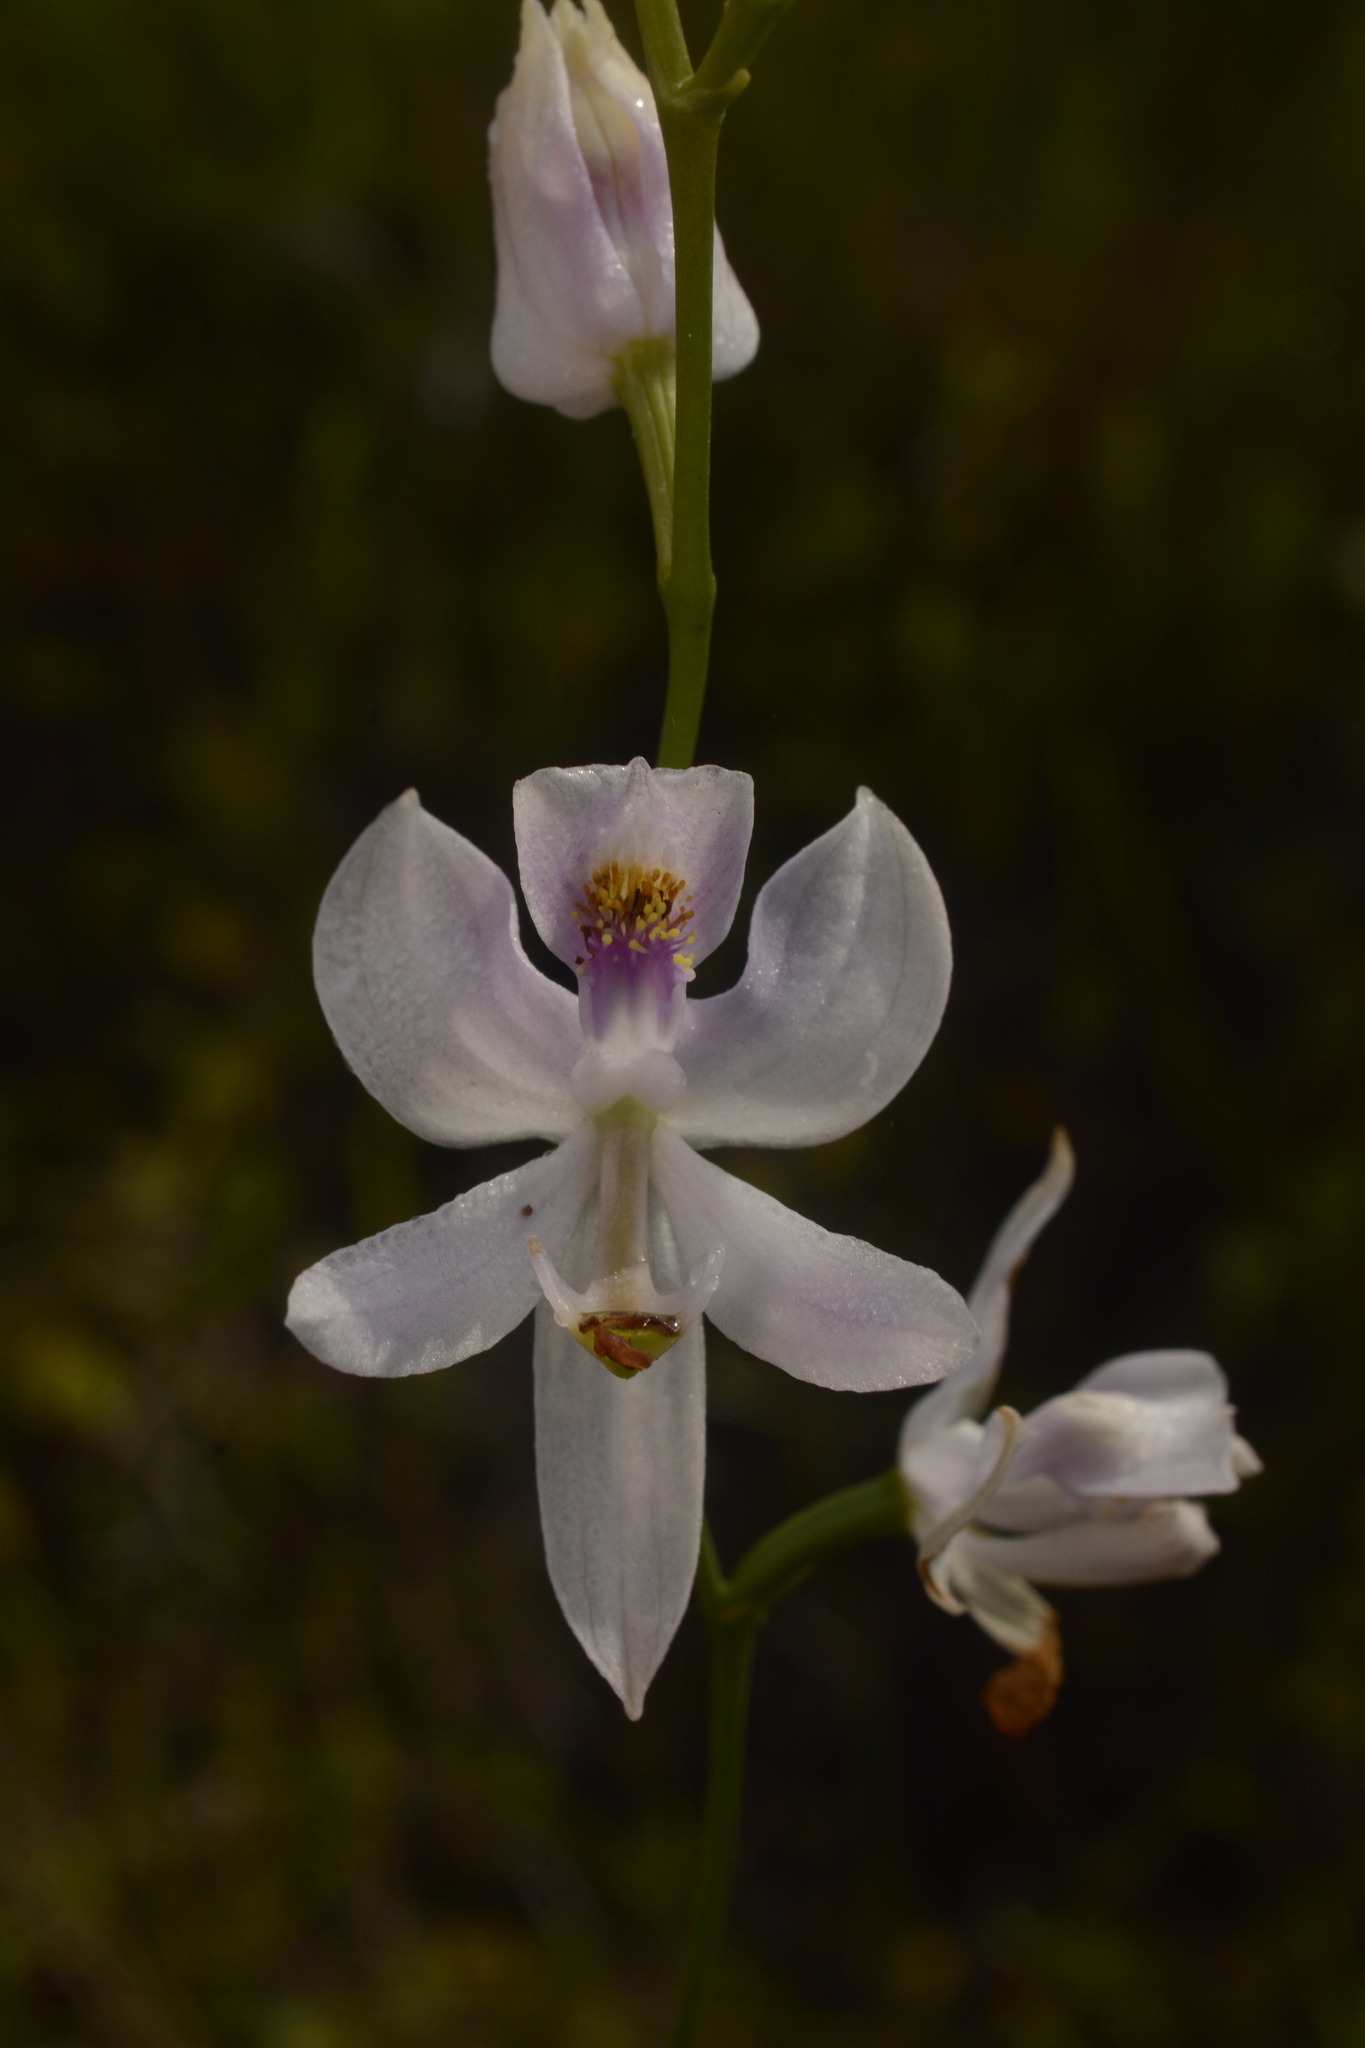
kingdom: Plantae
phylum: Tracheophyta
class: Liliopsida
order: Asparagales
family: Orchidaceae
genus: Calopogon
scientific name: Calopogon pallidus
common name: Pale grasspink
